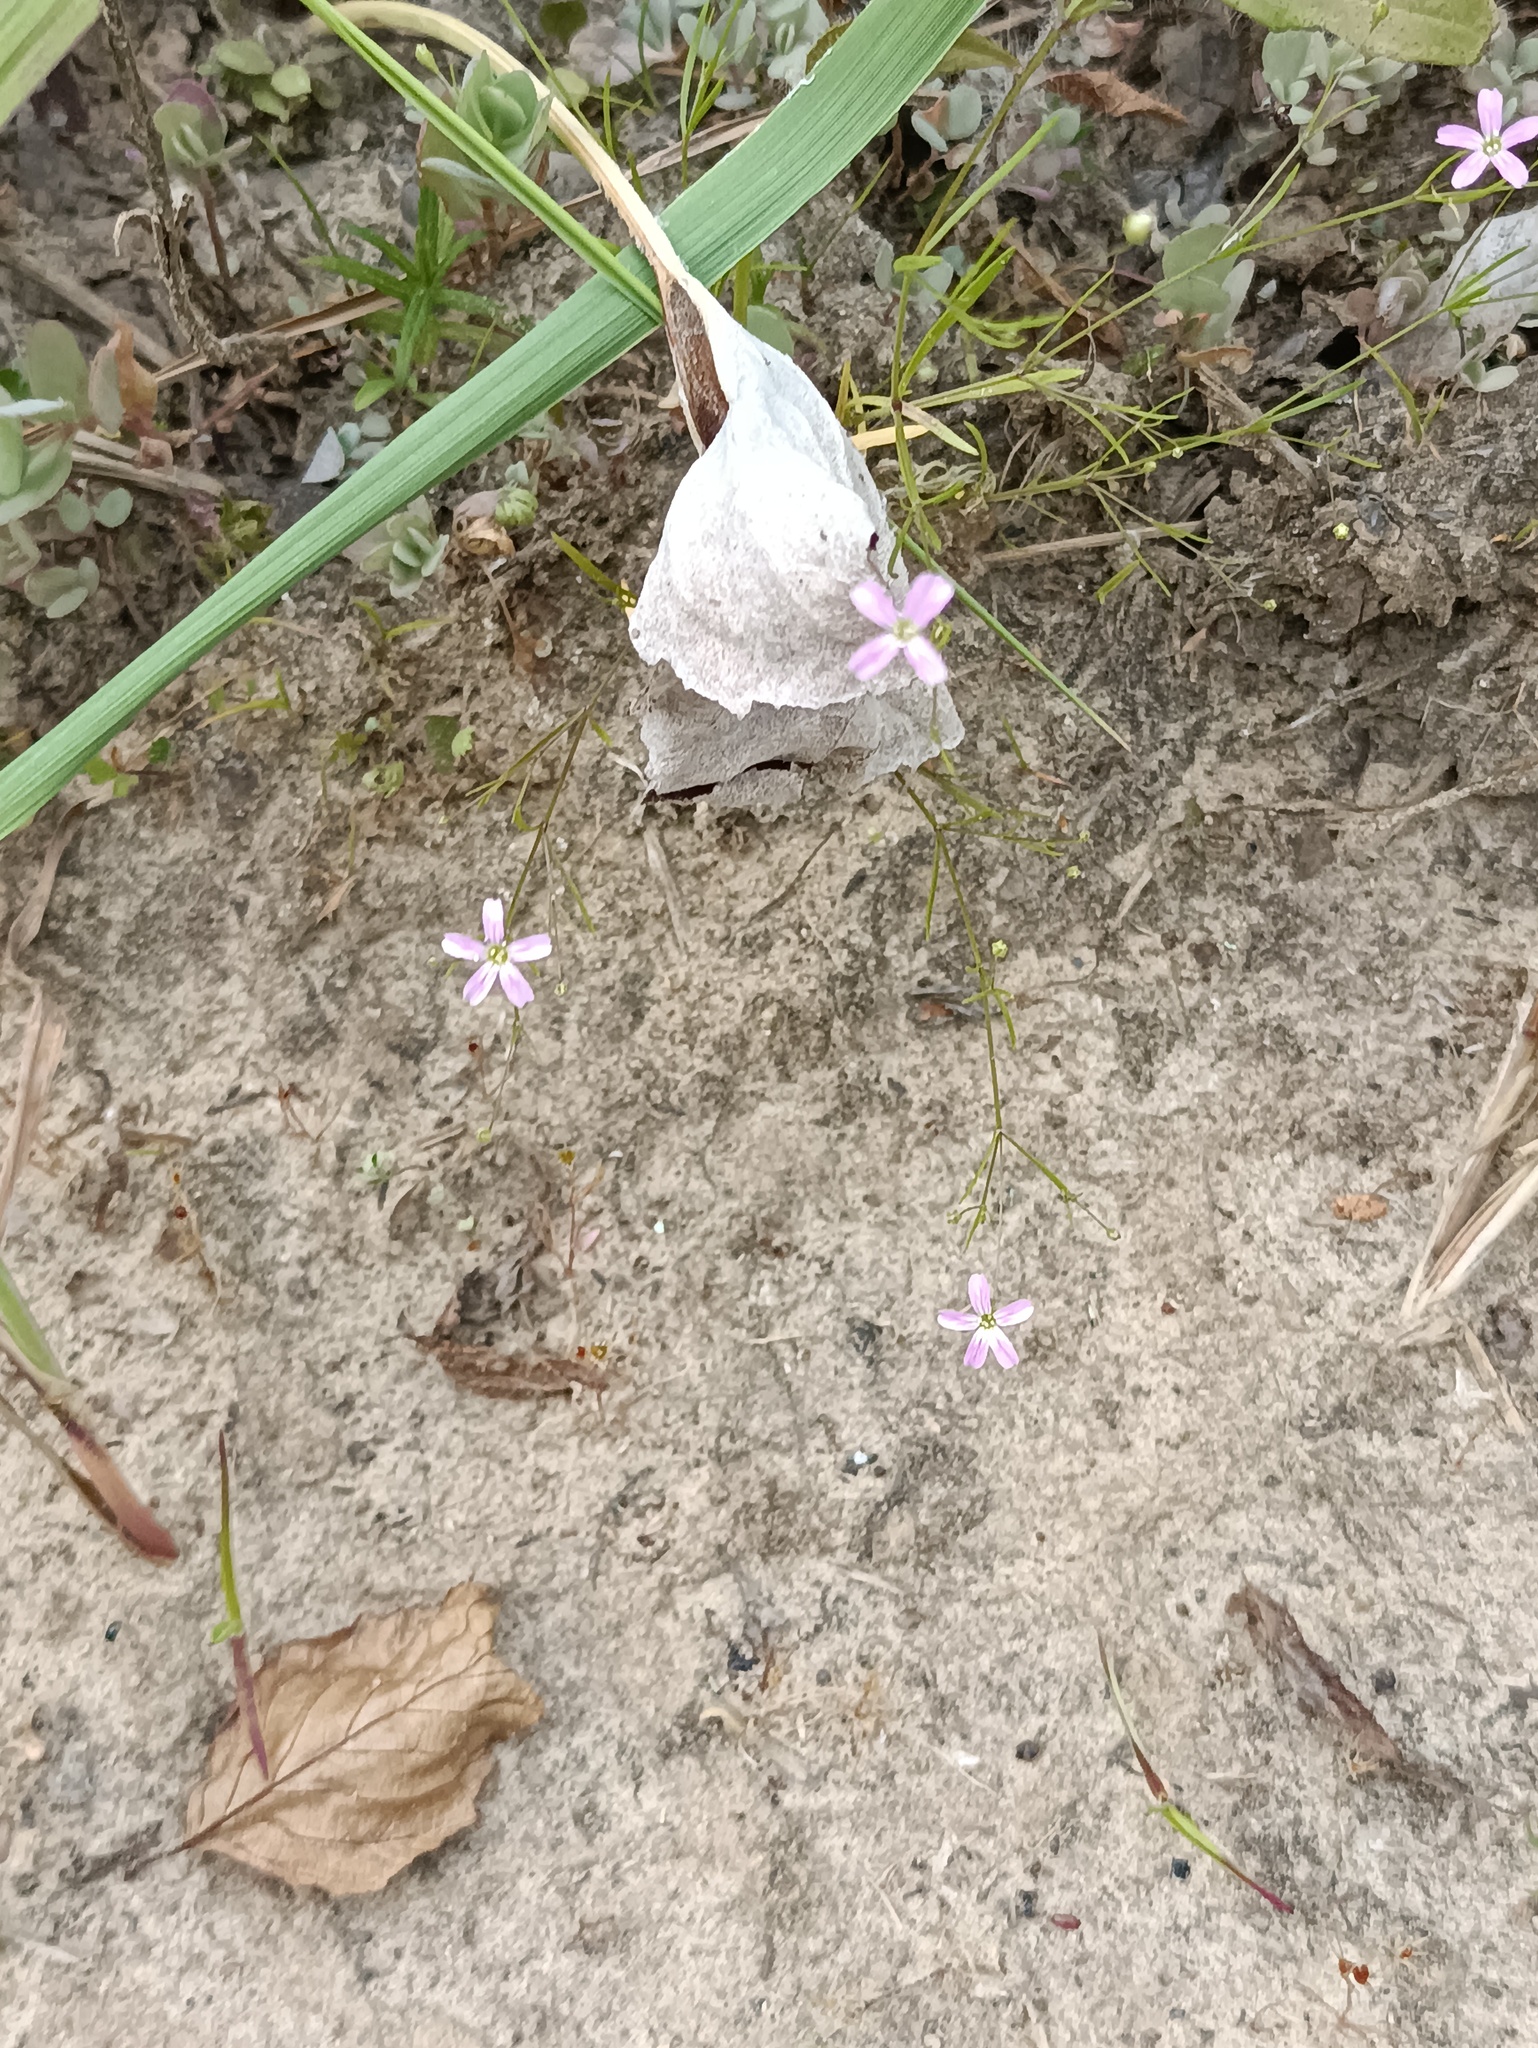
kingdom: Plantae
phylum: Tracheophyta
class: Magnoliopsida
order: Caryophyllales
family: Caryophyllaceae
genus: Psammophiliella
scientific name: Psammophiliella muralis
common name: Cushion baby's-breath
